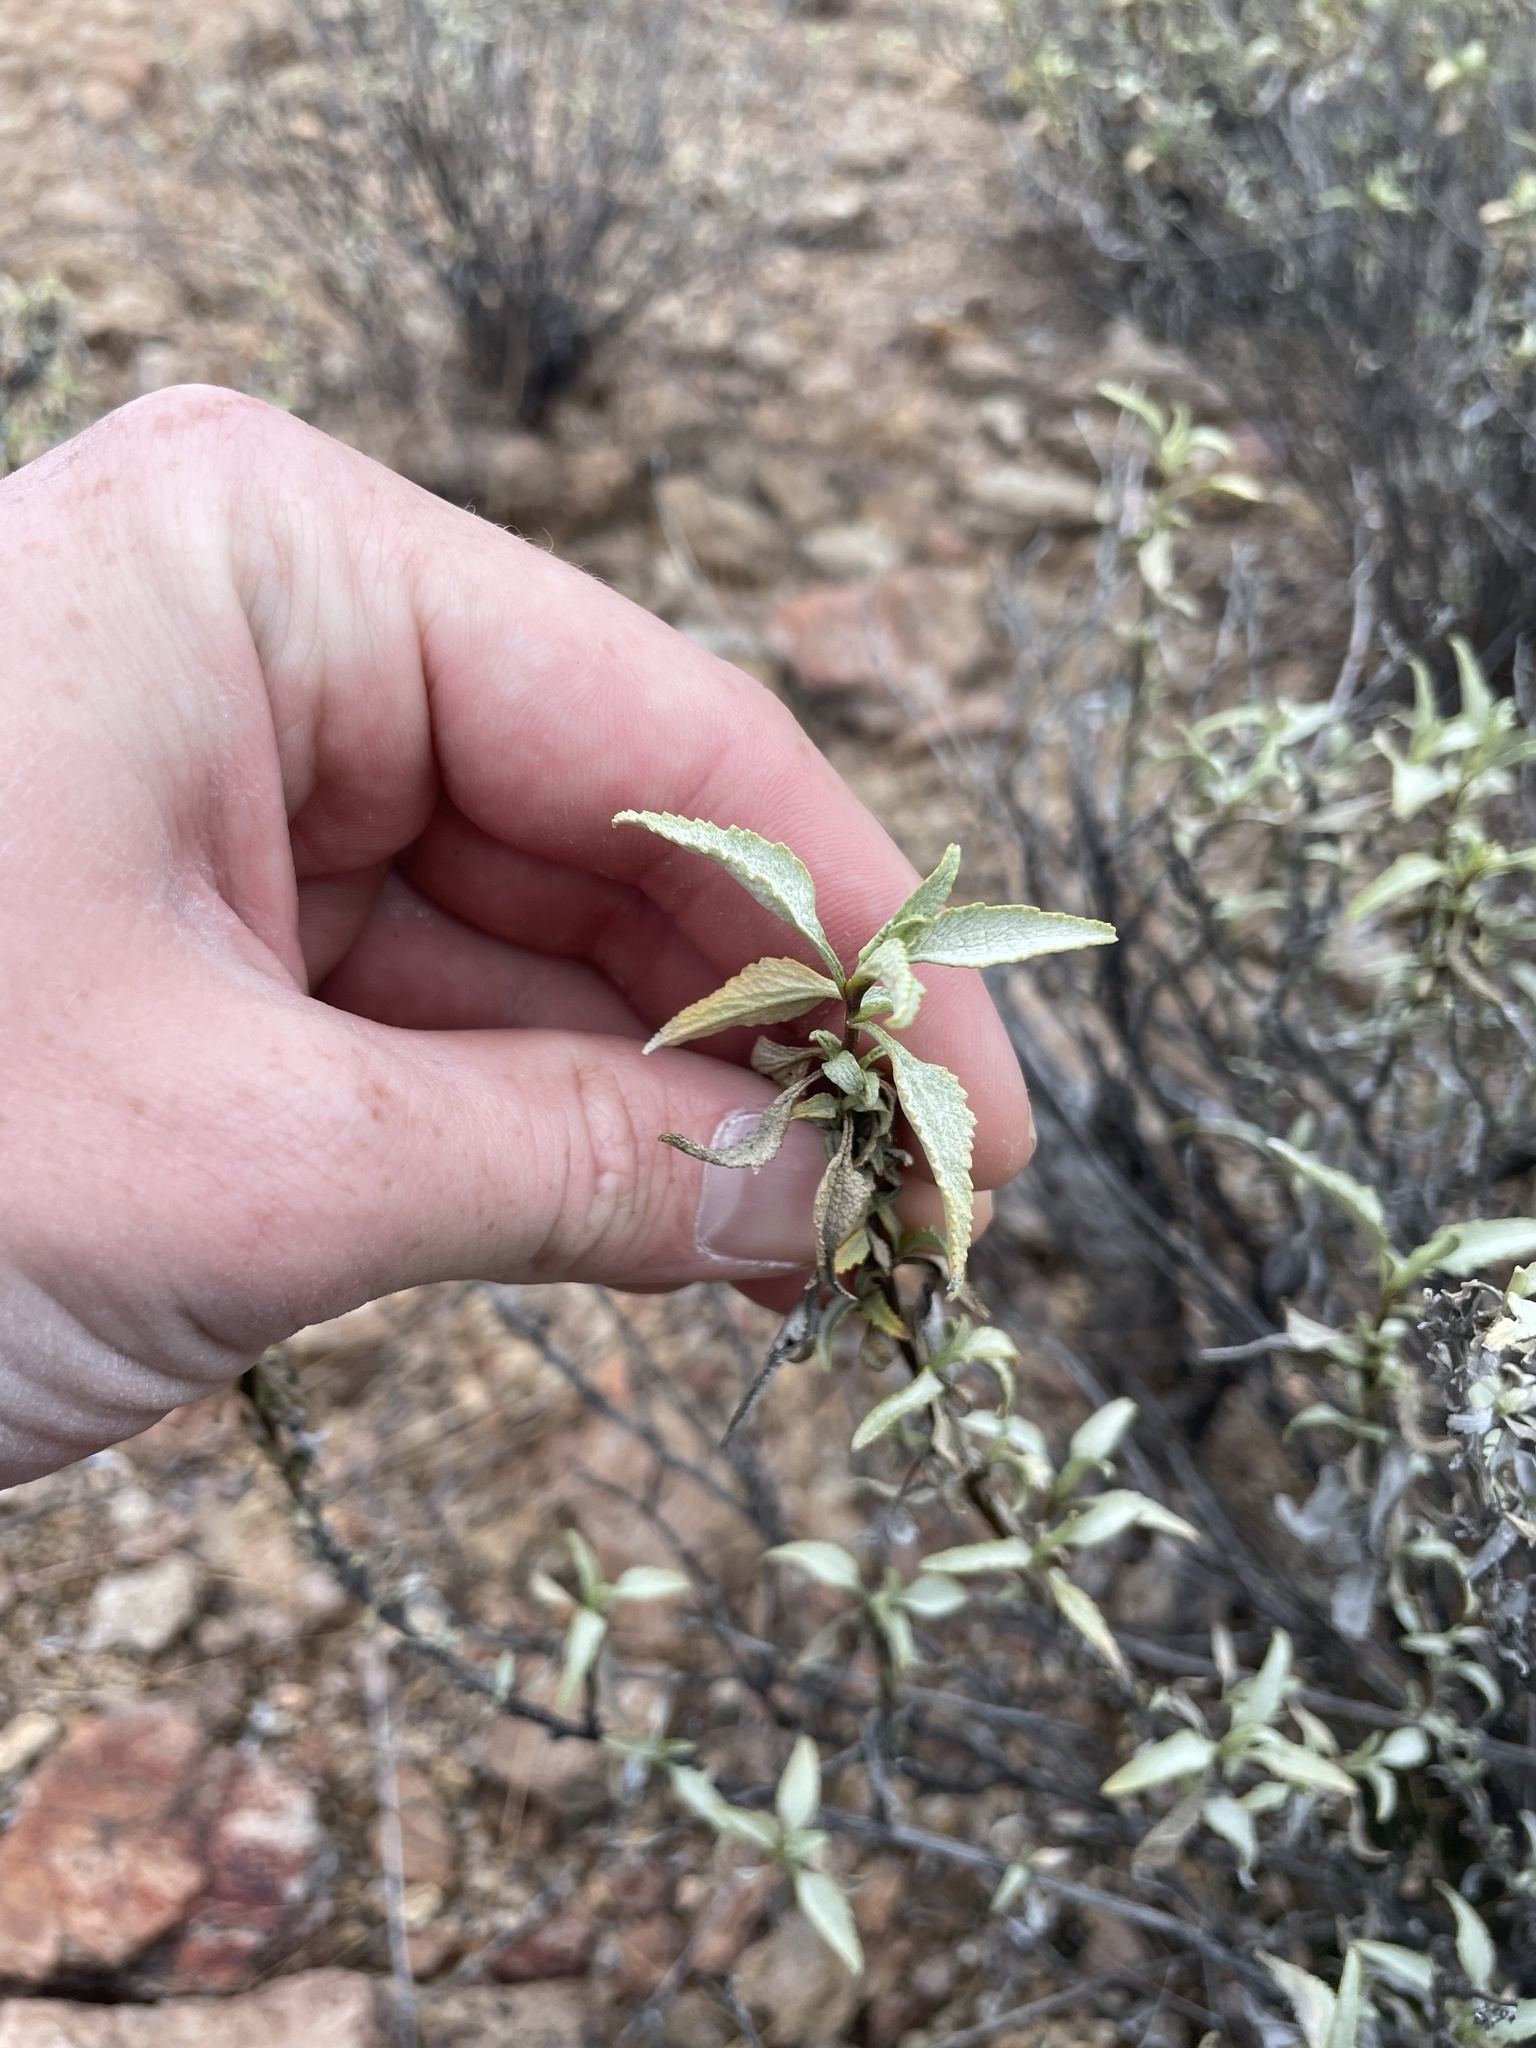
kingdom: Plantae
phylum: Tracheophyta
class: Magnoliopsida
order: Asterales
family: Asteraceae
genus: Ambrosia
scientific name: Ambrosia deltoidea
